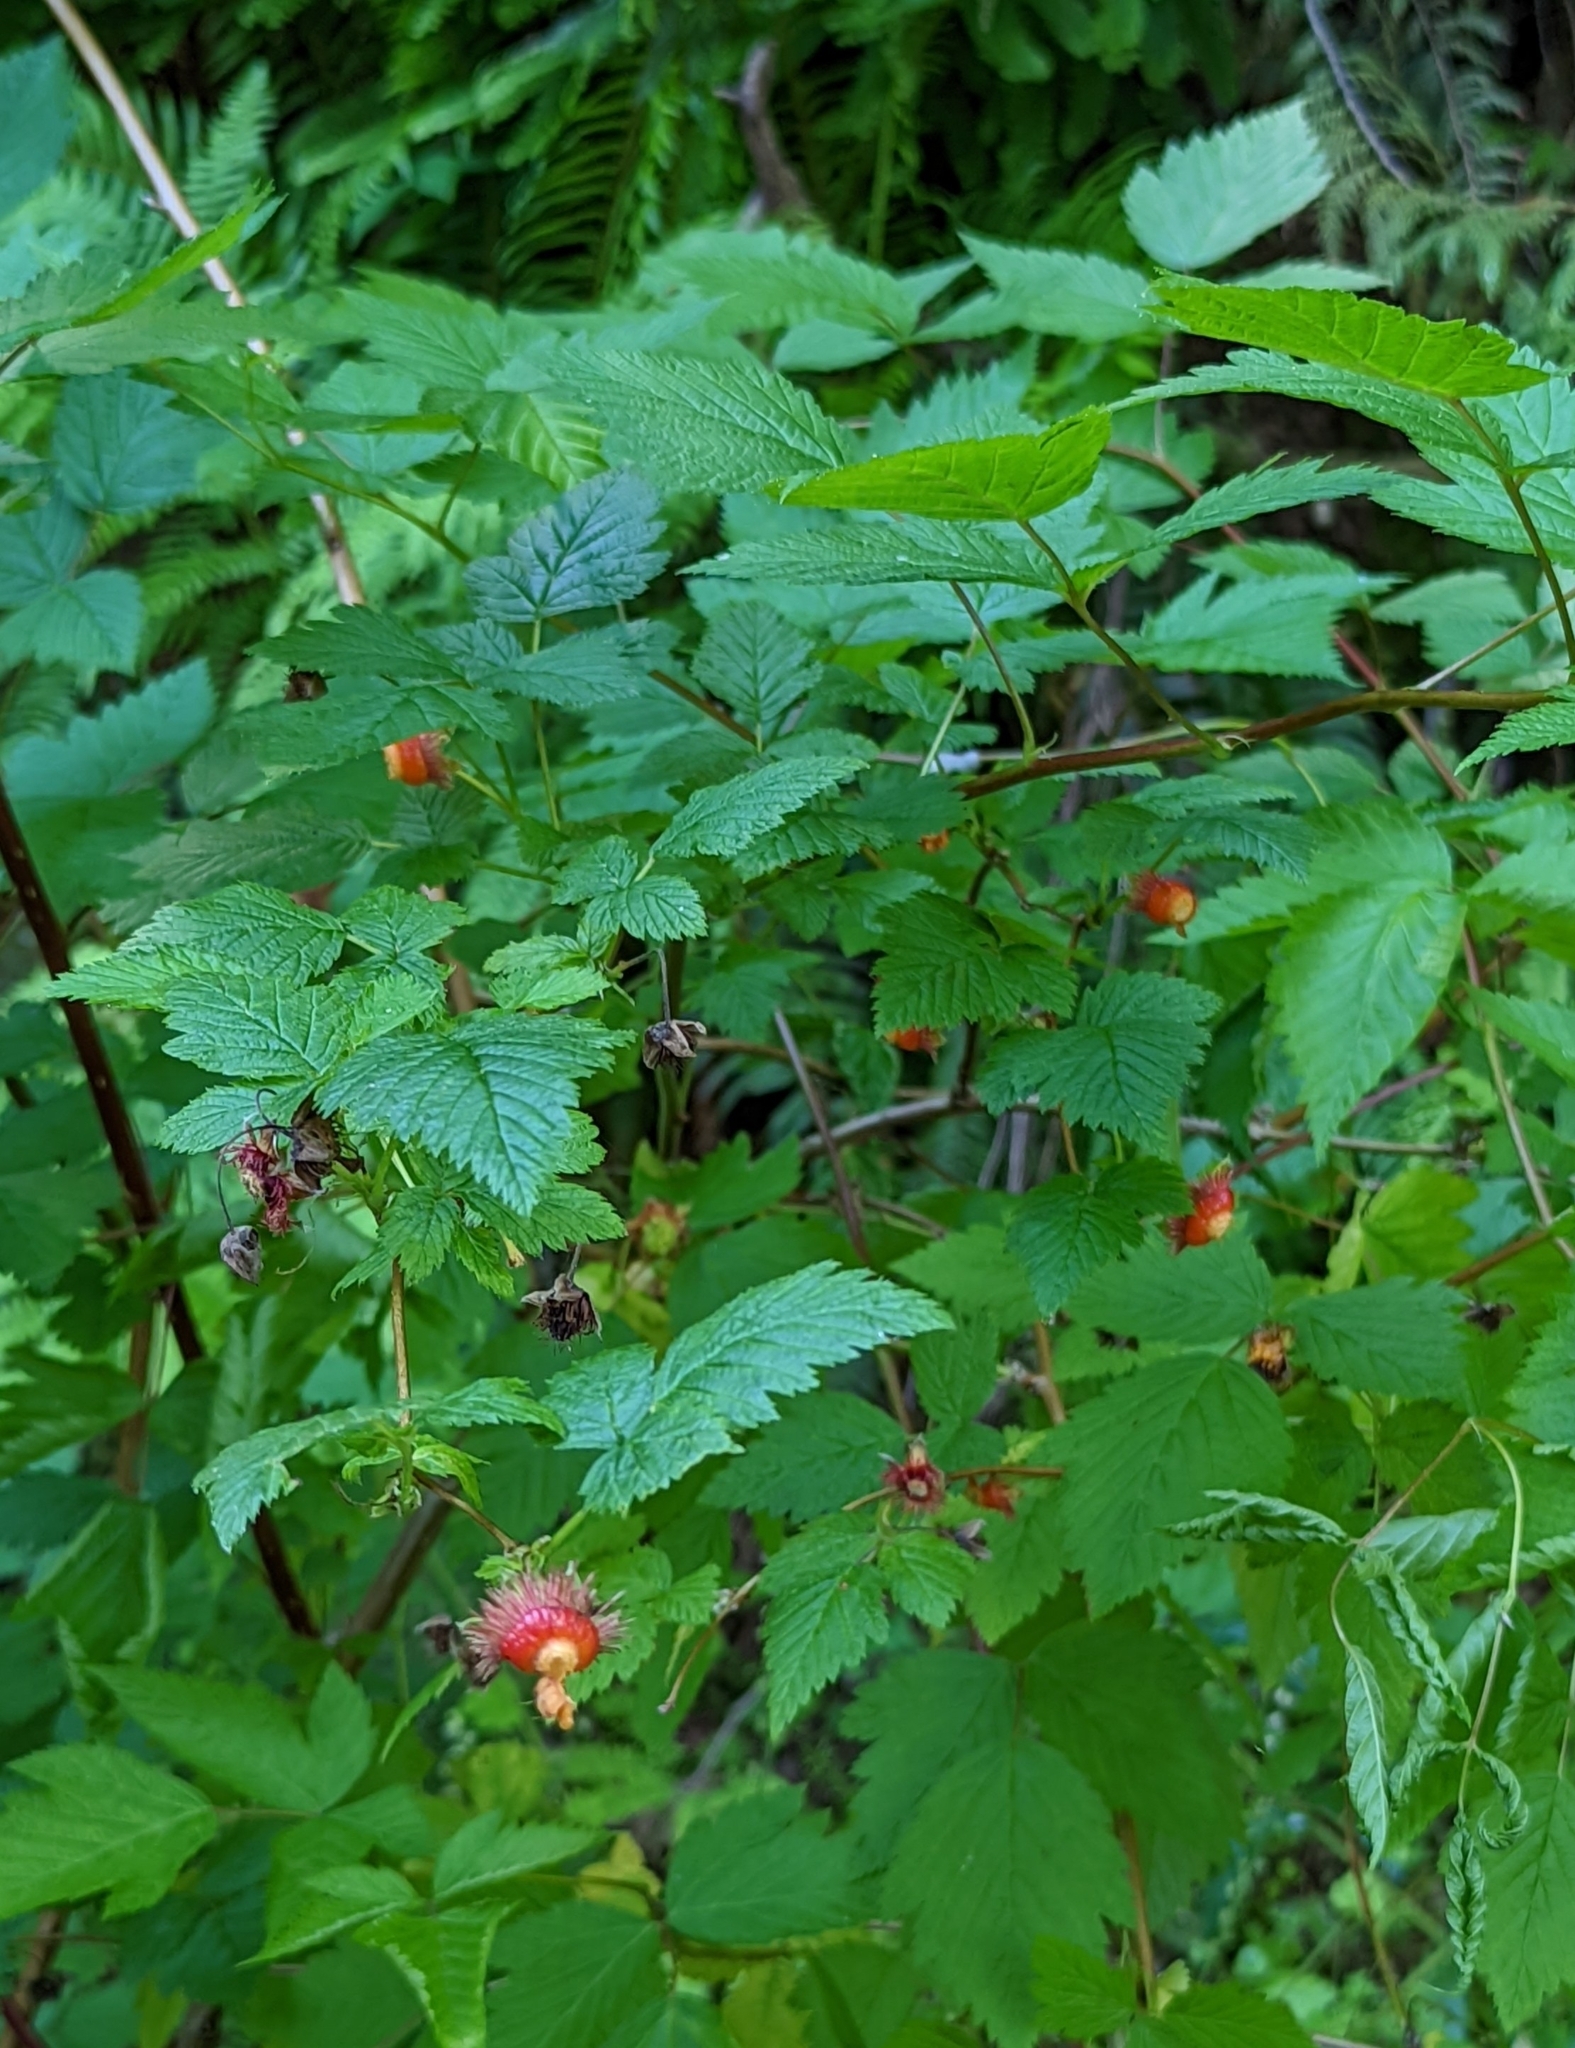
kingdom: Plantae
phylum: Tracheophyta
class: Magnoliopsida
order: Rosales
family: Rosaceae
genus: Rubus
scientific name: Rubus spectabilis
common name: Salmonberry
